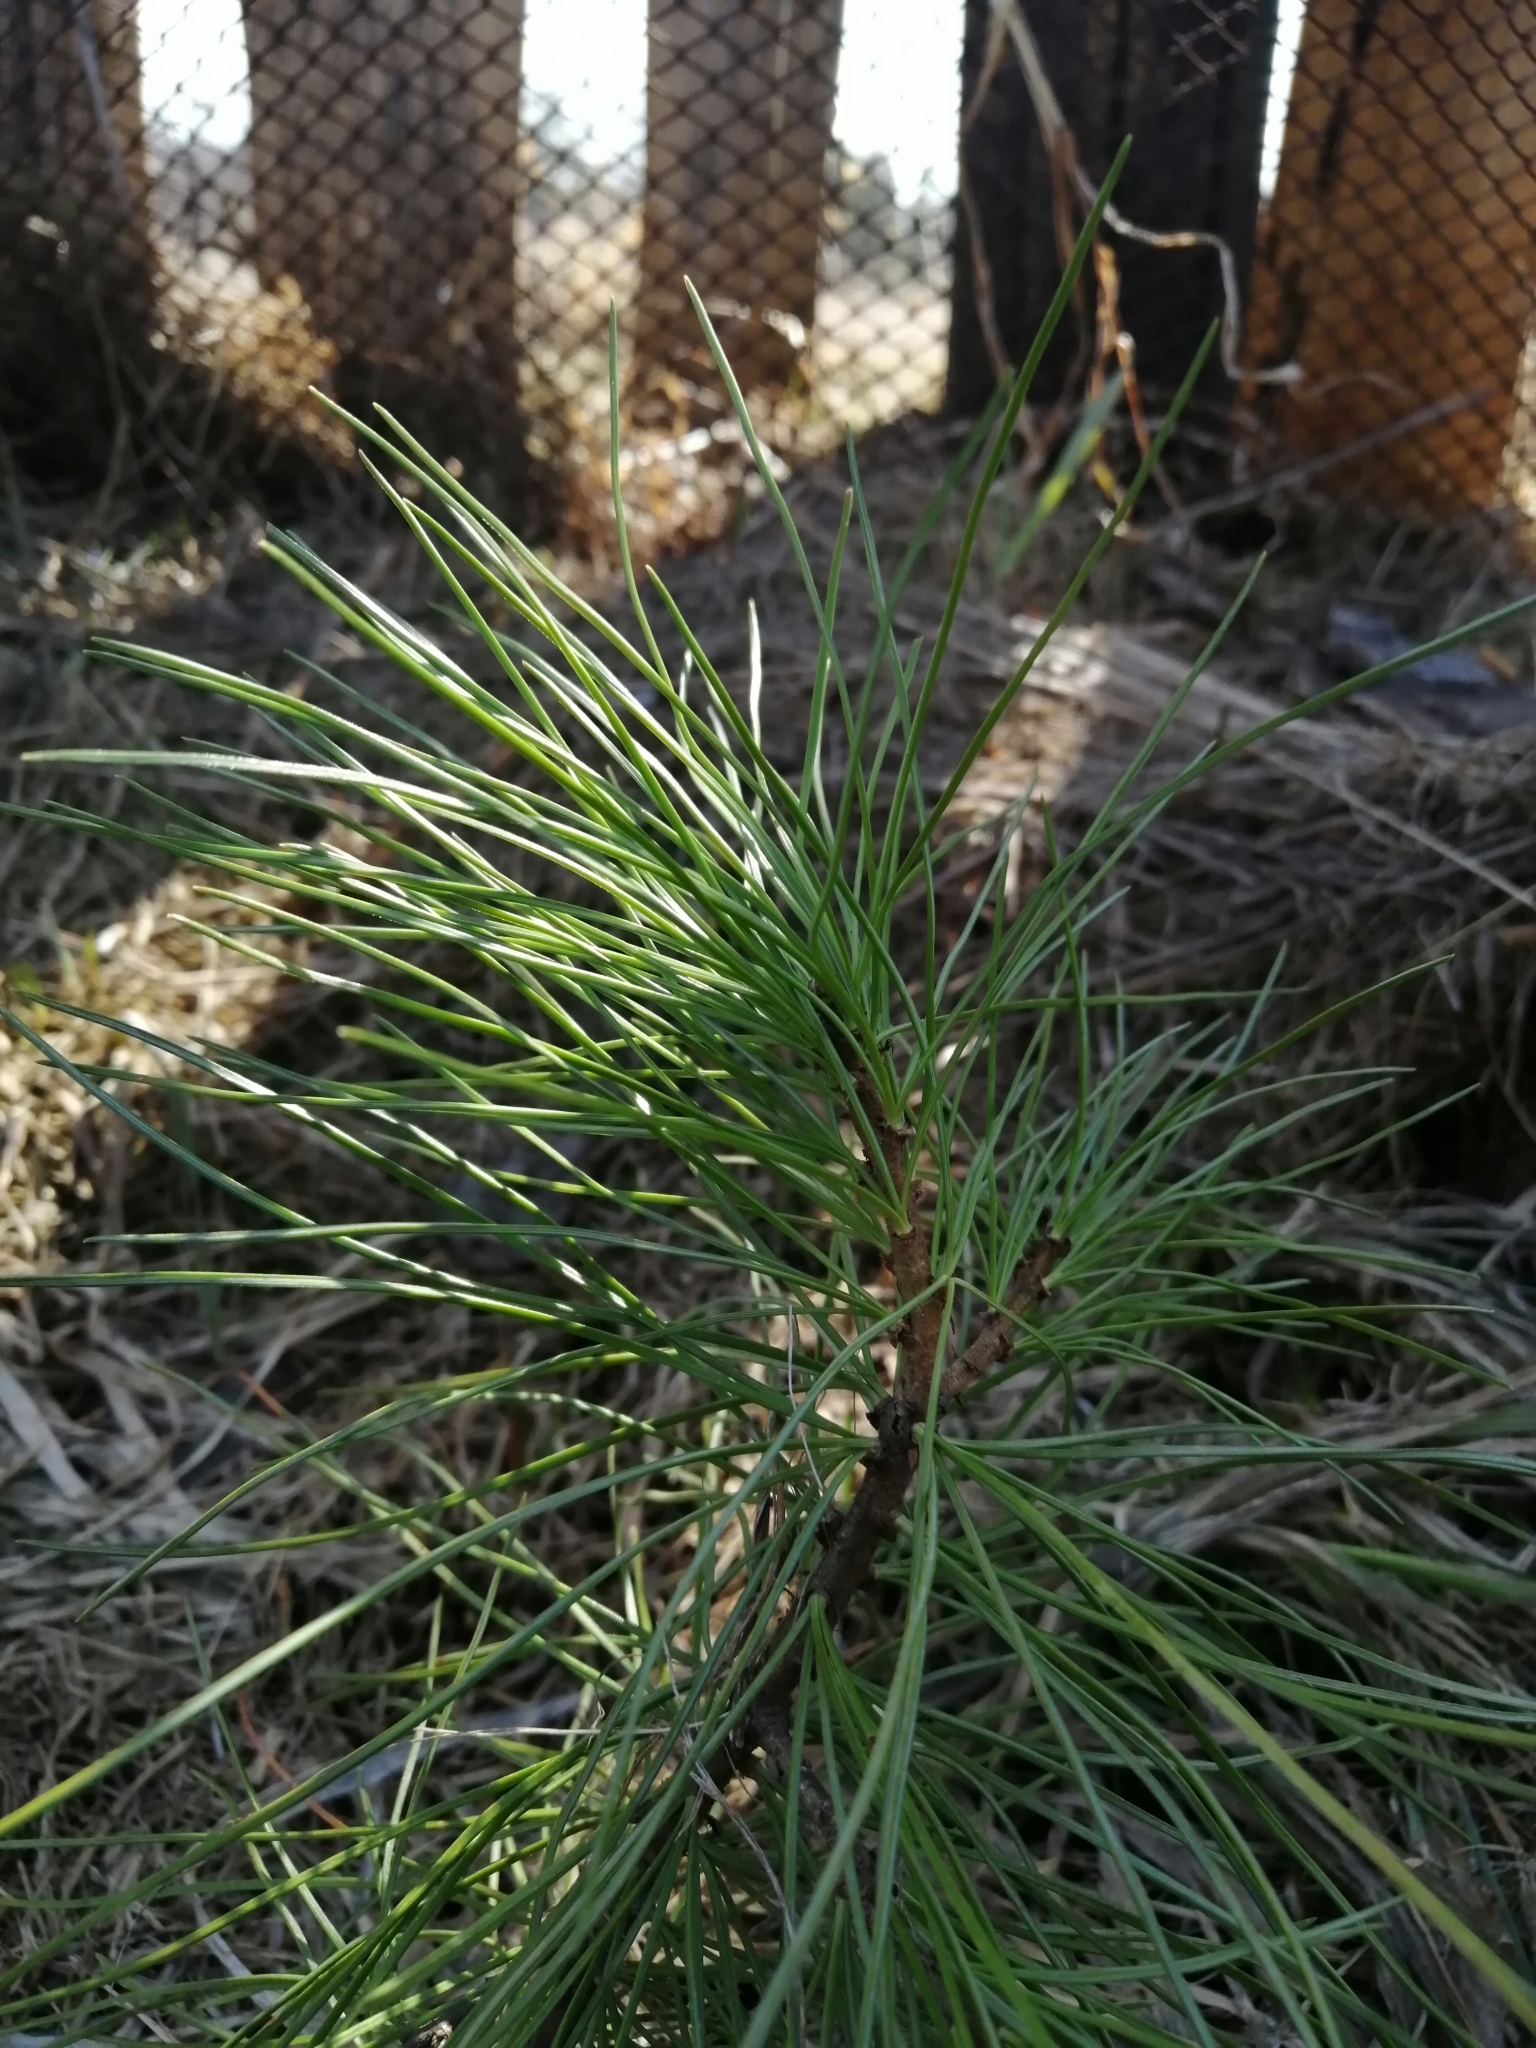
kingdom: Plantae
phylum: Tracheophyta
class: Pinopsida
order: Pinales
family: Pinaceae
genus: Pinus
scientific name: Pinus sibirica
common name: Siberian pine
